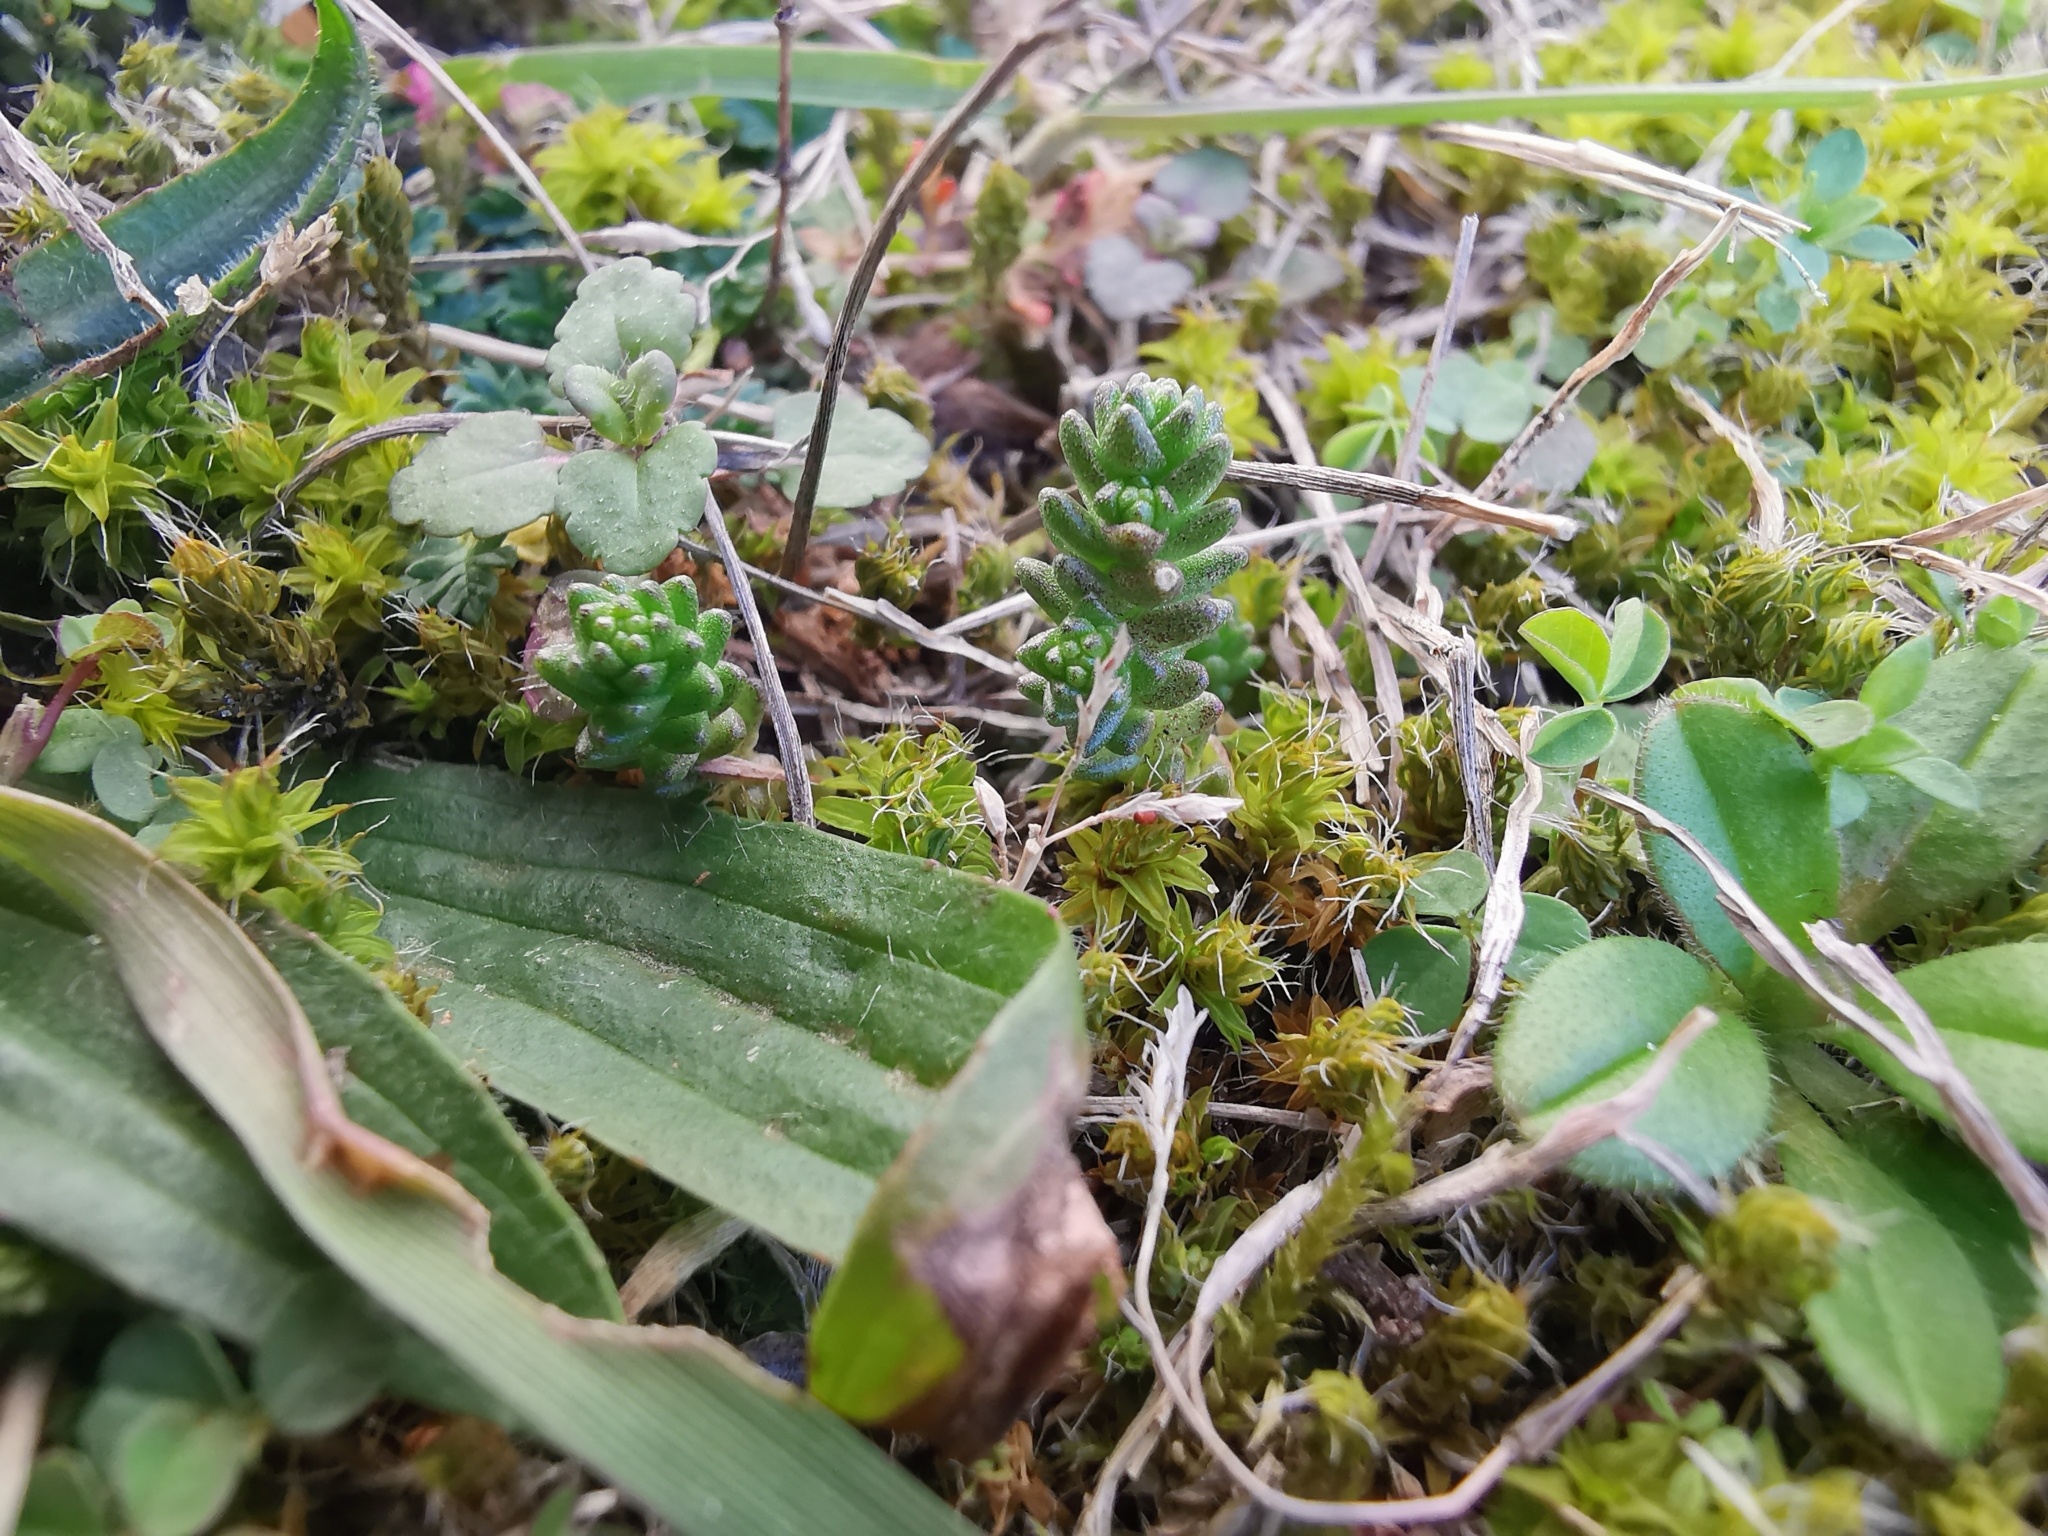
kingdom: Plantae
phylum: Tracheophyta
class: Magnoliopsida
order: Saxifragales
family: Crassulaceae
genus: Sedum
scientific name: Sedum acre
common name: Biting stonecrop
